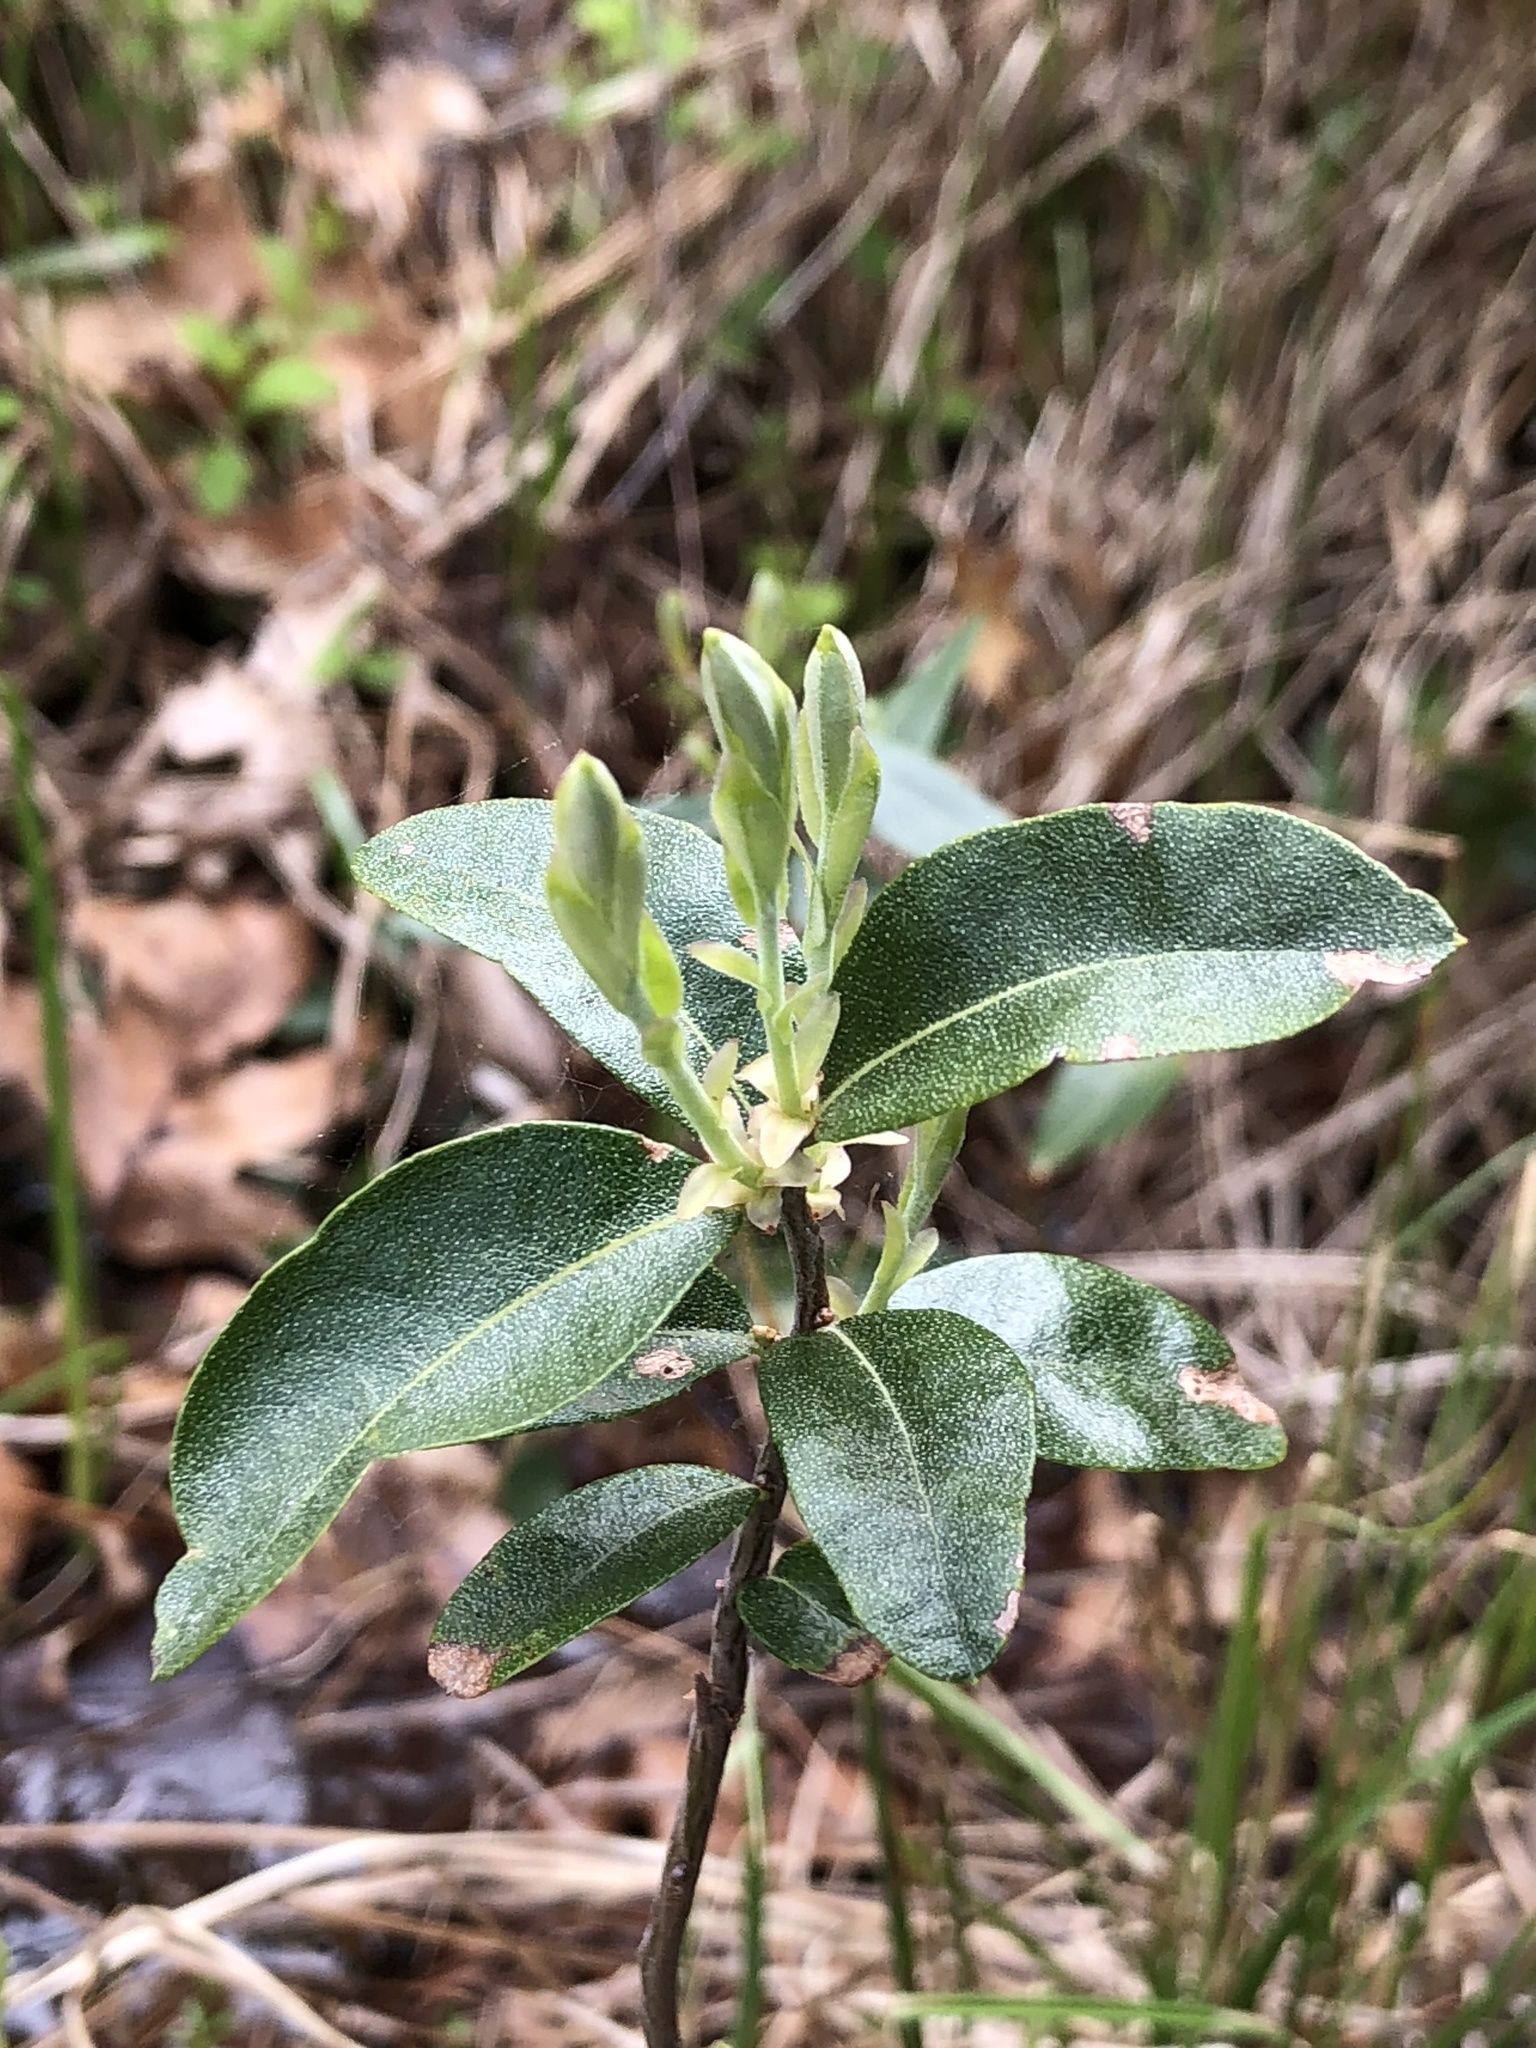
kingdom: Plantae
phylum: Tracheophyta
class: Magnoliopsida
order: Ericales
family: Ericaceae
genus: Chamaedaphne
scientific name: Chamaedaphne calyculata
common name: Leatherleaf
